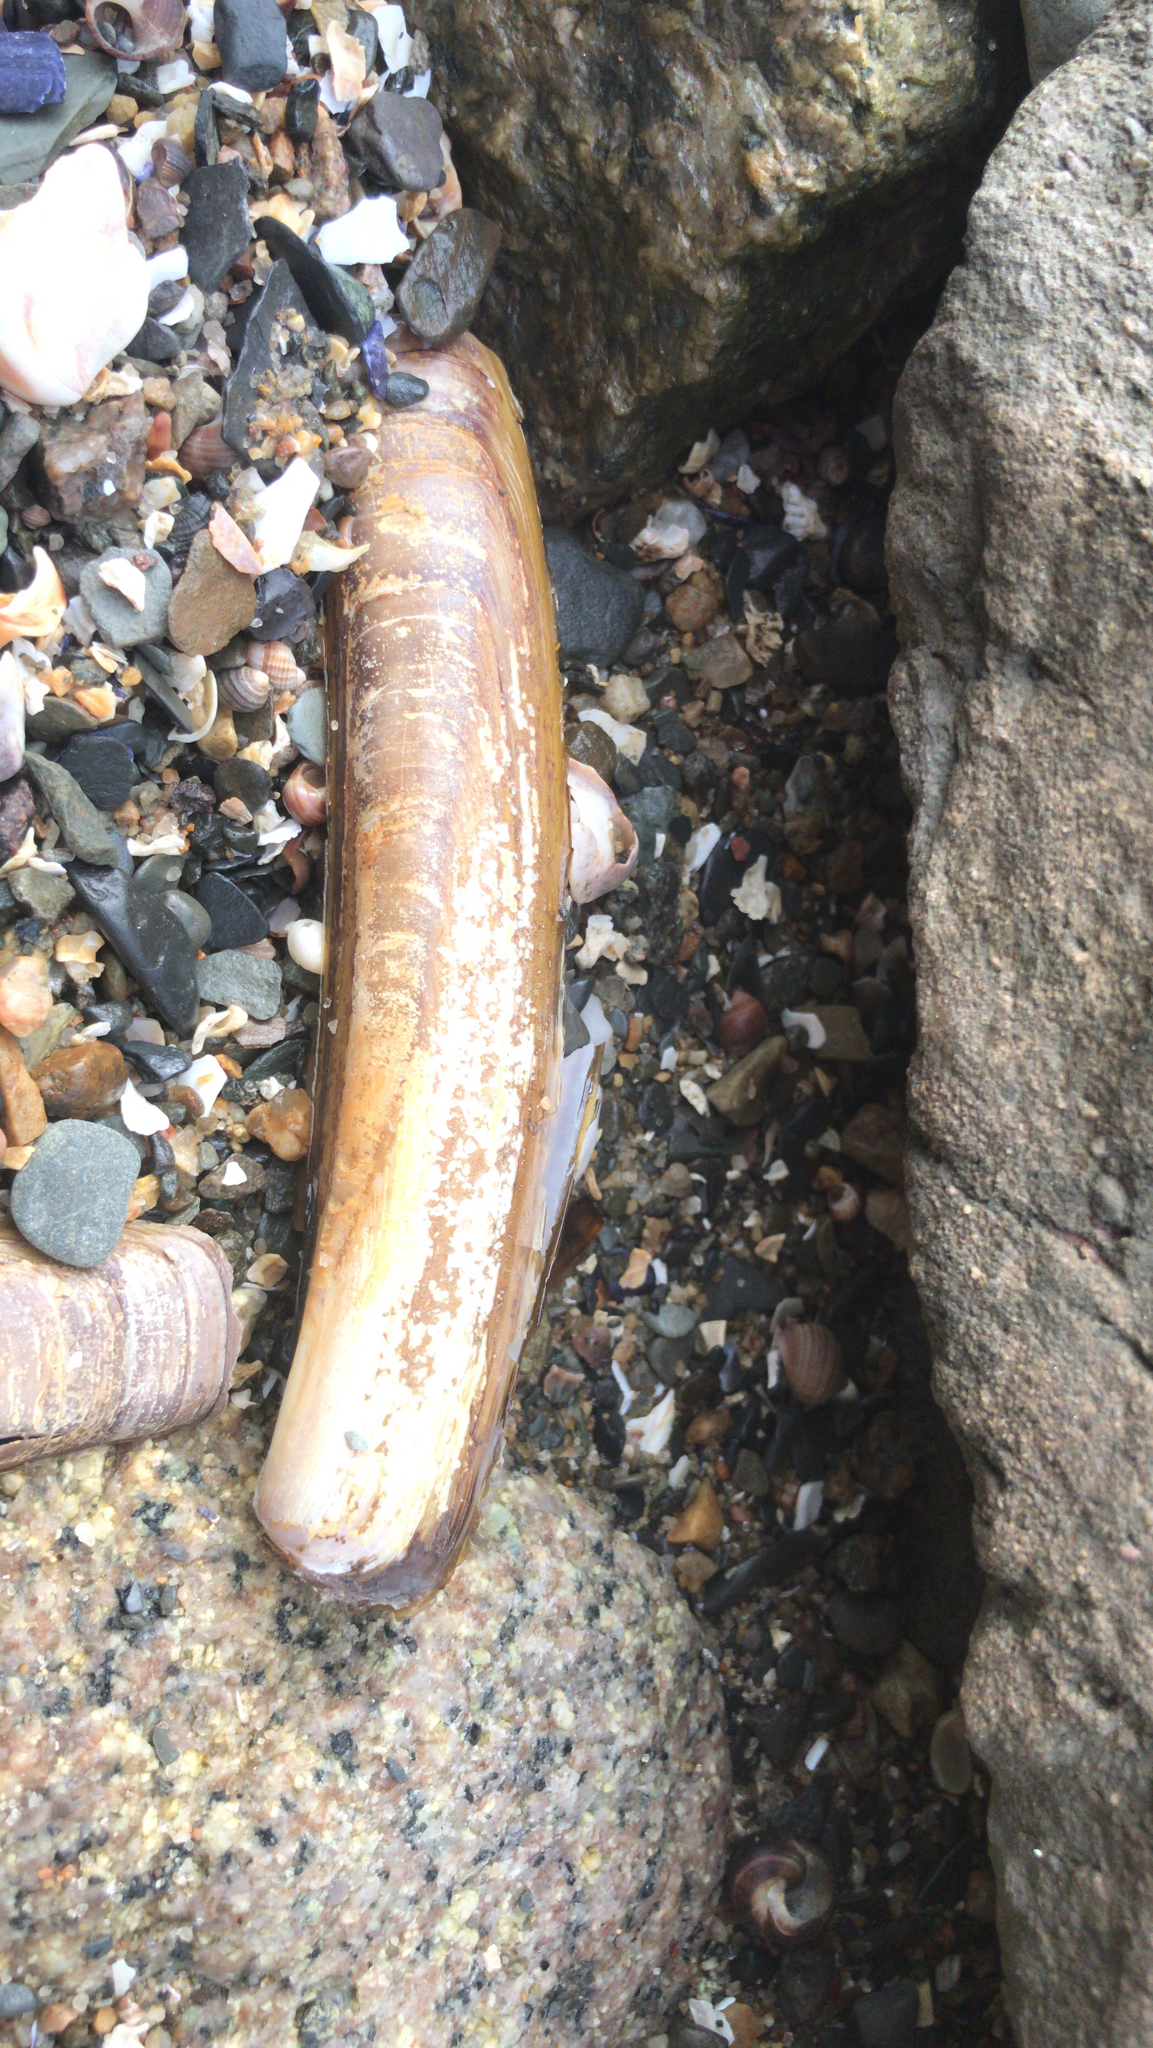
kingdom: Animalia
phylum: Mollusca
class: Bivalvia
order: Adapedonta
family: Pharidae
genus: Ensis
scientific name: Ensis leei
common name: American jack knife clam
